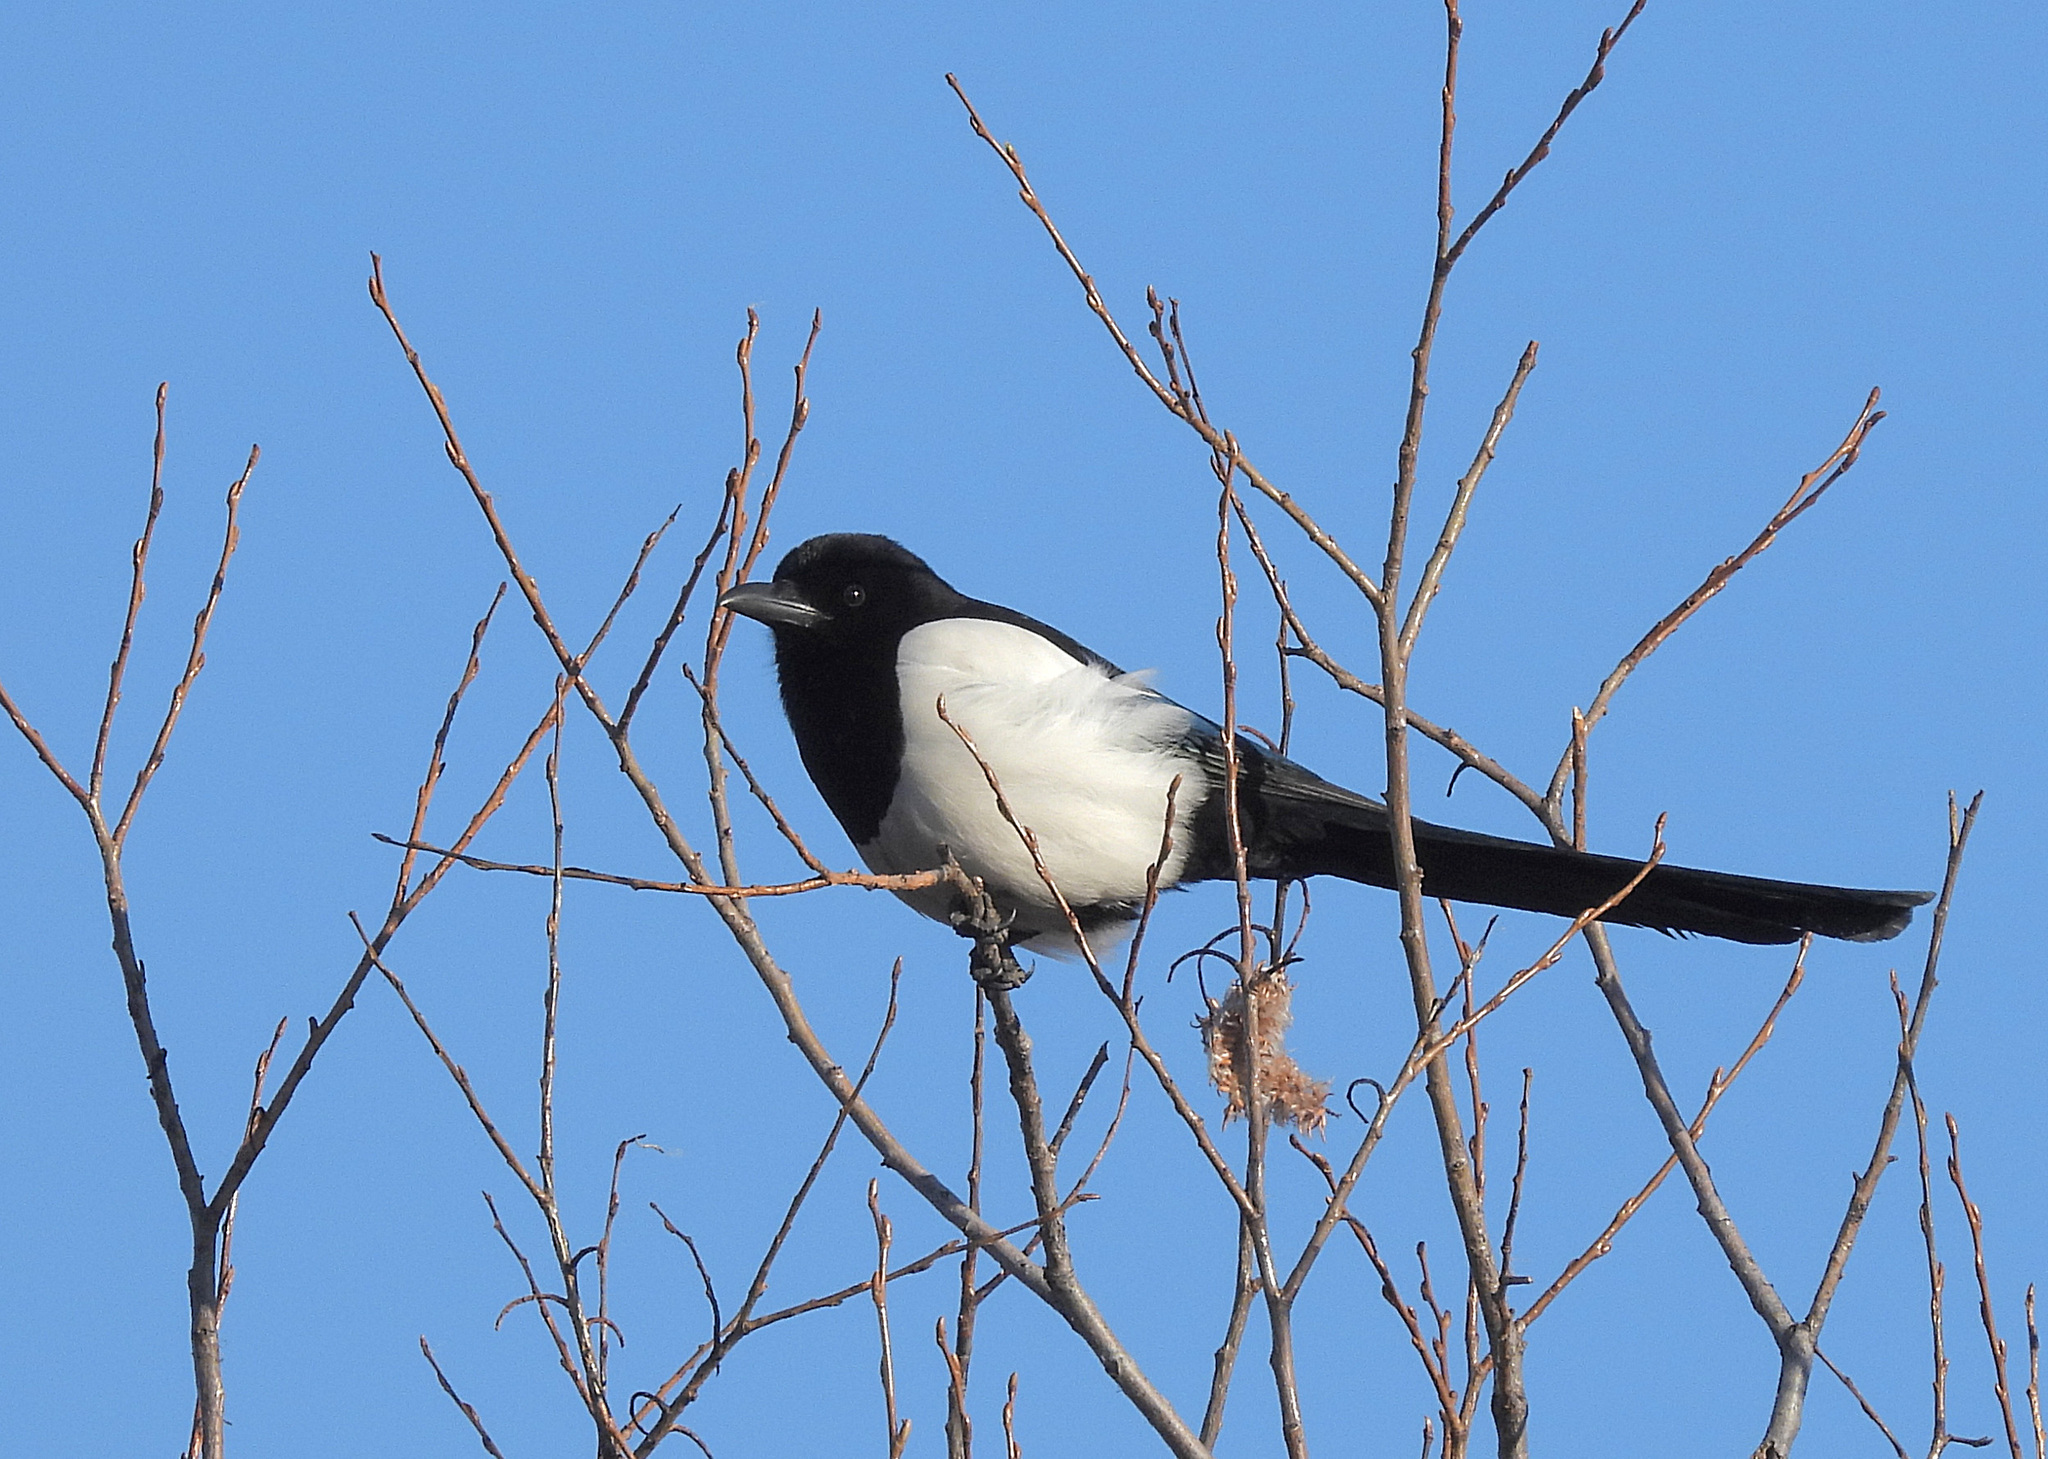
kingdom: Animalia
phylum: Chordata
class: Aves
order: Passeriformes
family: Corvidae
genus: Pica
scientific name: Pica pica
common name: Eurasian magpie
